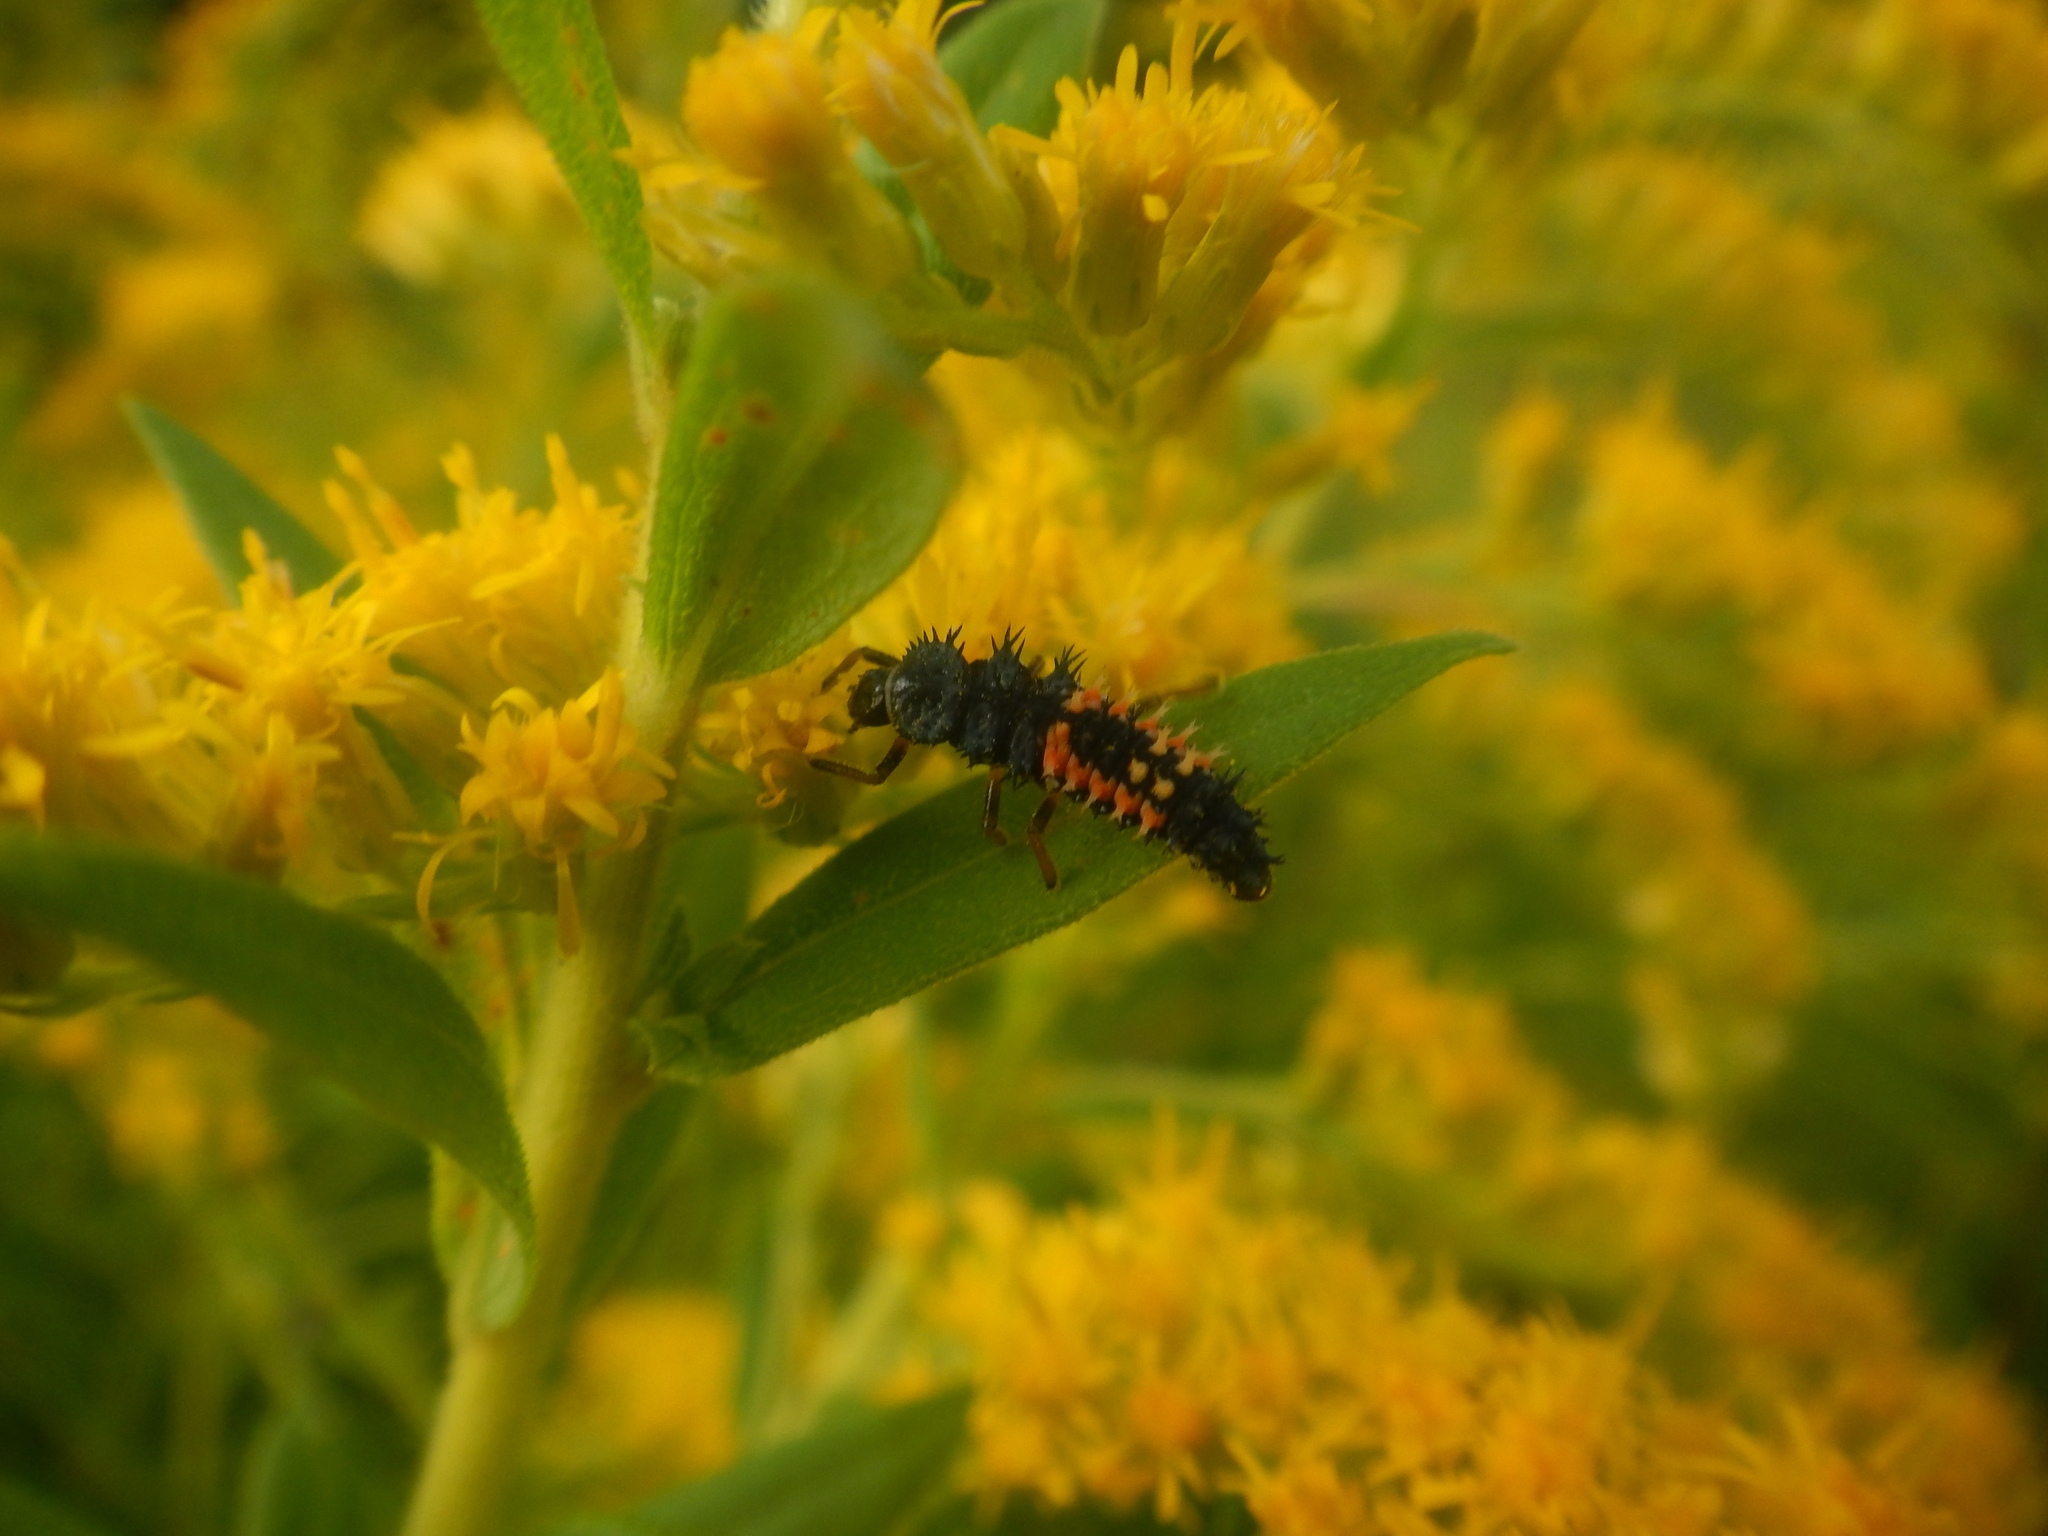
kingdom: Animalia
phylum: Arthropoda
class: Insecta
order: Coleoptera
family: Coccinellidae
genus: Harmonia
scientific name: Harmonia axyridis
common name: Harlequin ladybird
